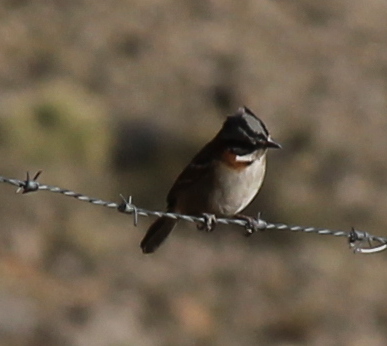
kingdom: Animalia
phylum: Chordata
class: Aves
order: Passeriformes
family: Passerellidae
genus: Zonotrichia
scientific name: Zonotrichia capensis
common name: Rufous-collared sparrow
